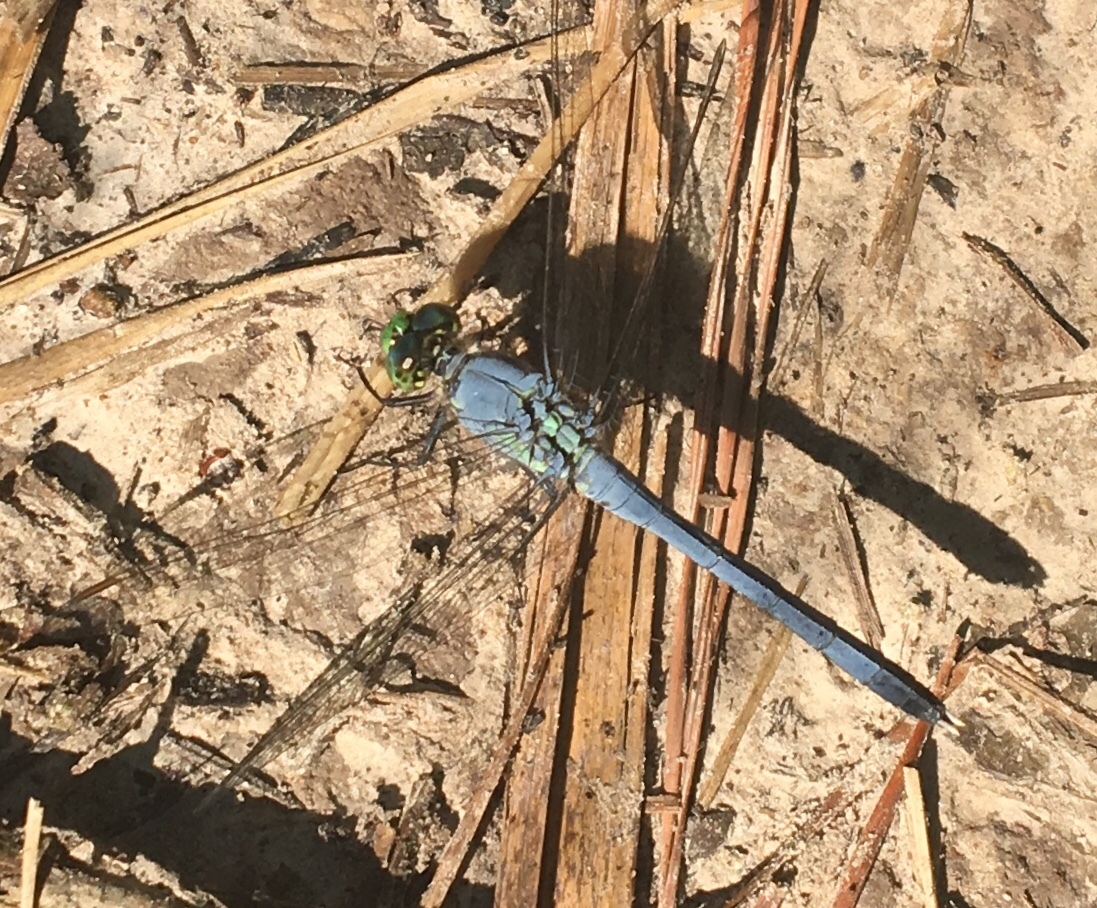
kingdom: Animalia
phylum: Arthropoda
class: Insecta
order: Odonata
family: Libellulidae
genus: Erythemis
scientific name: Erythemis simplicicollis
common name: Eastern pondhawk
